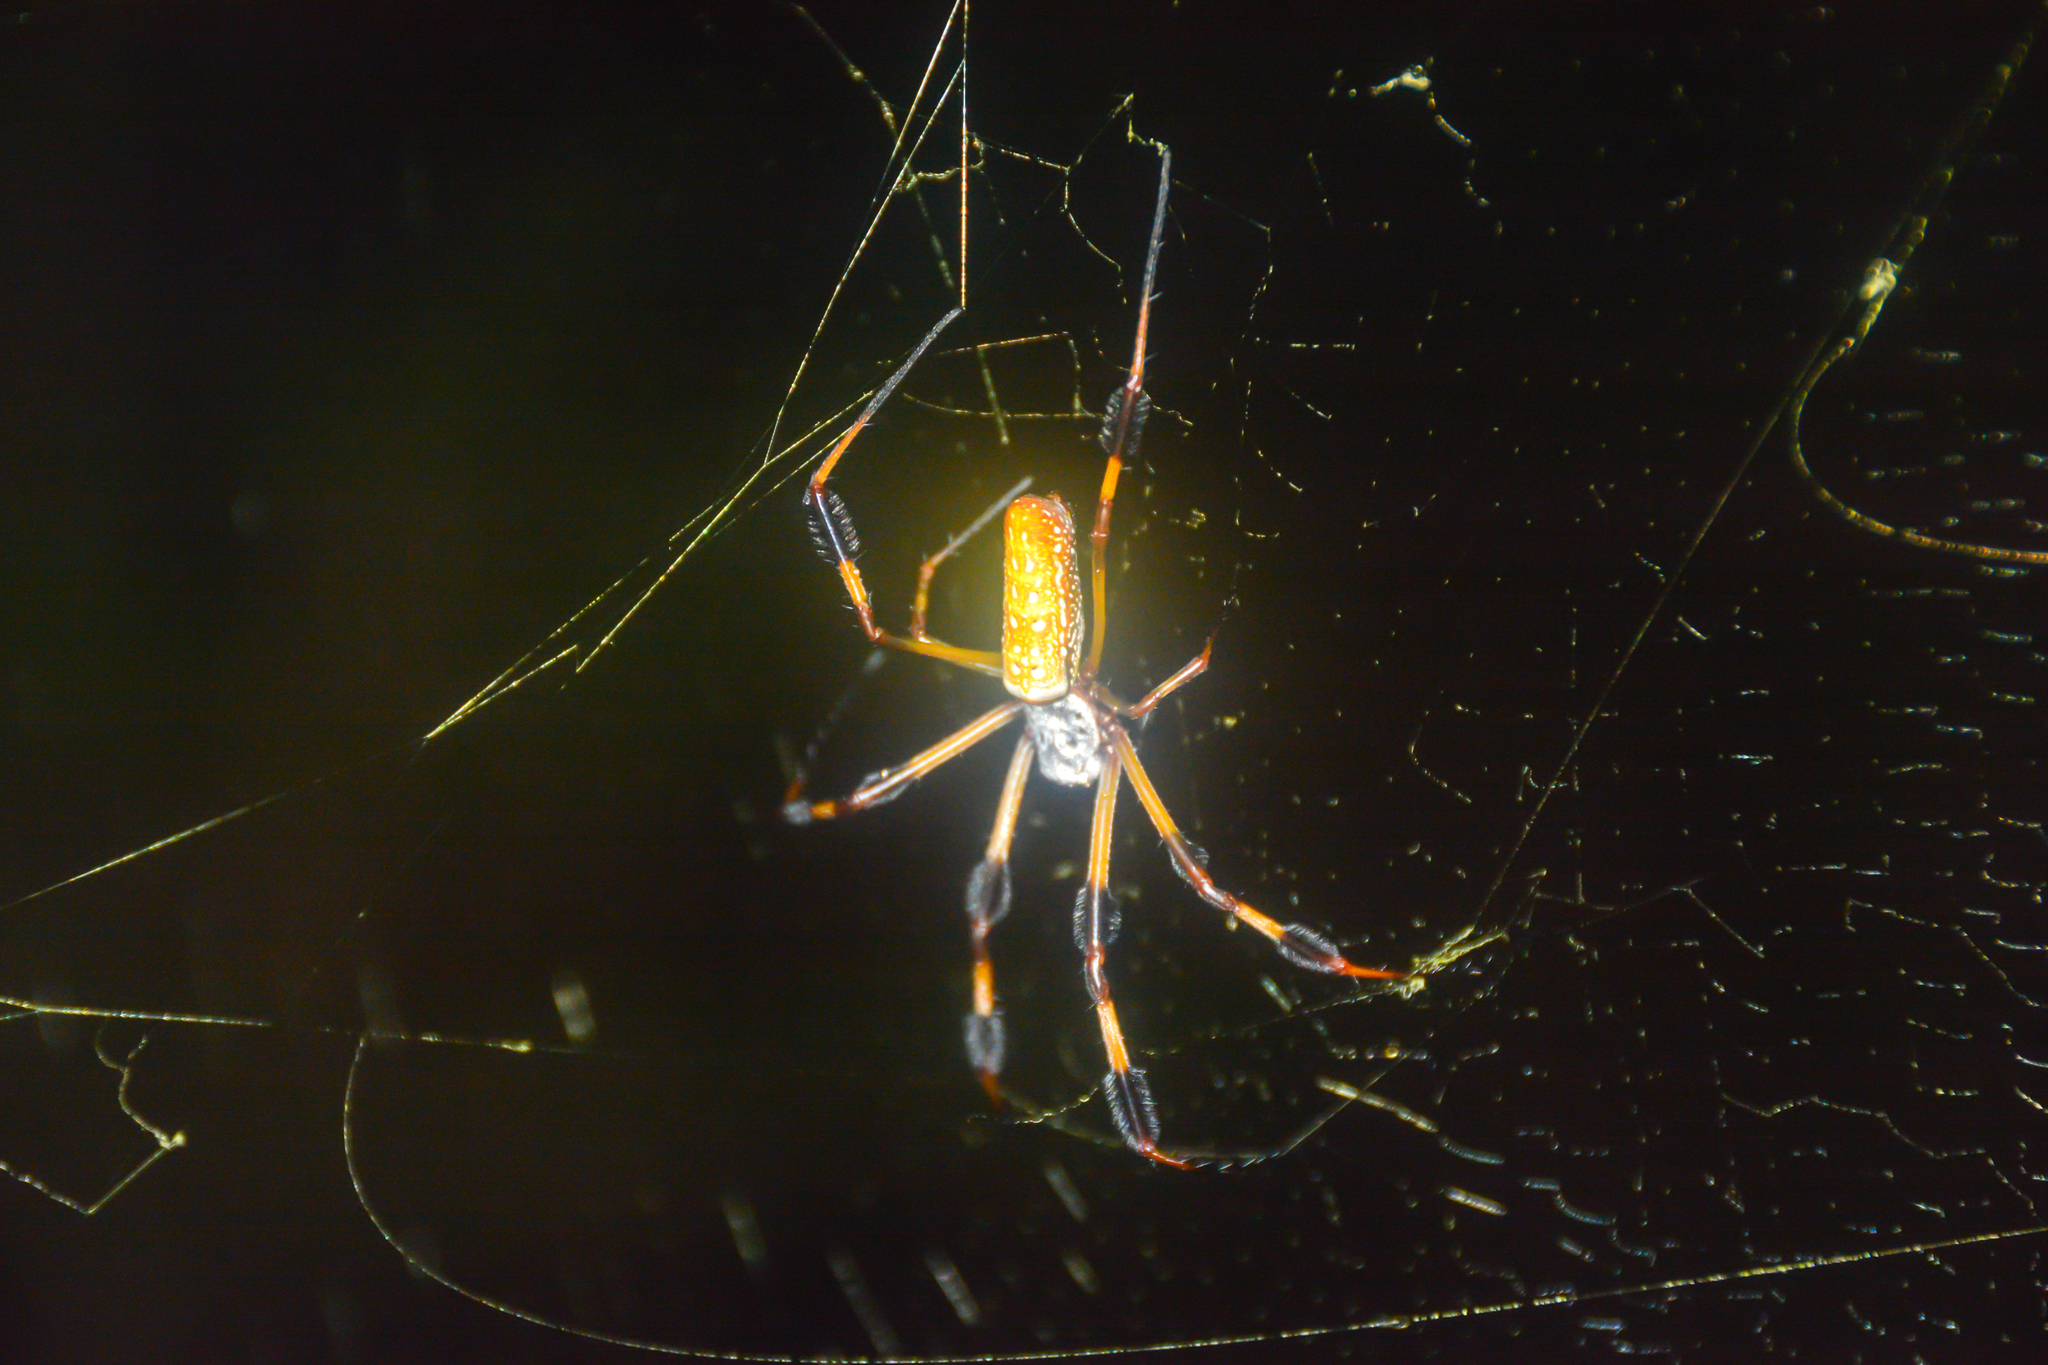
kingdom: Animalia
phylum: Arthropoda
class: Arachnida
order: Araneae
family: Araneidae
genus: Trichonephila
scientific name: Trichonephila clavipes
